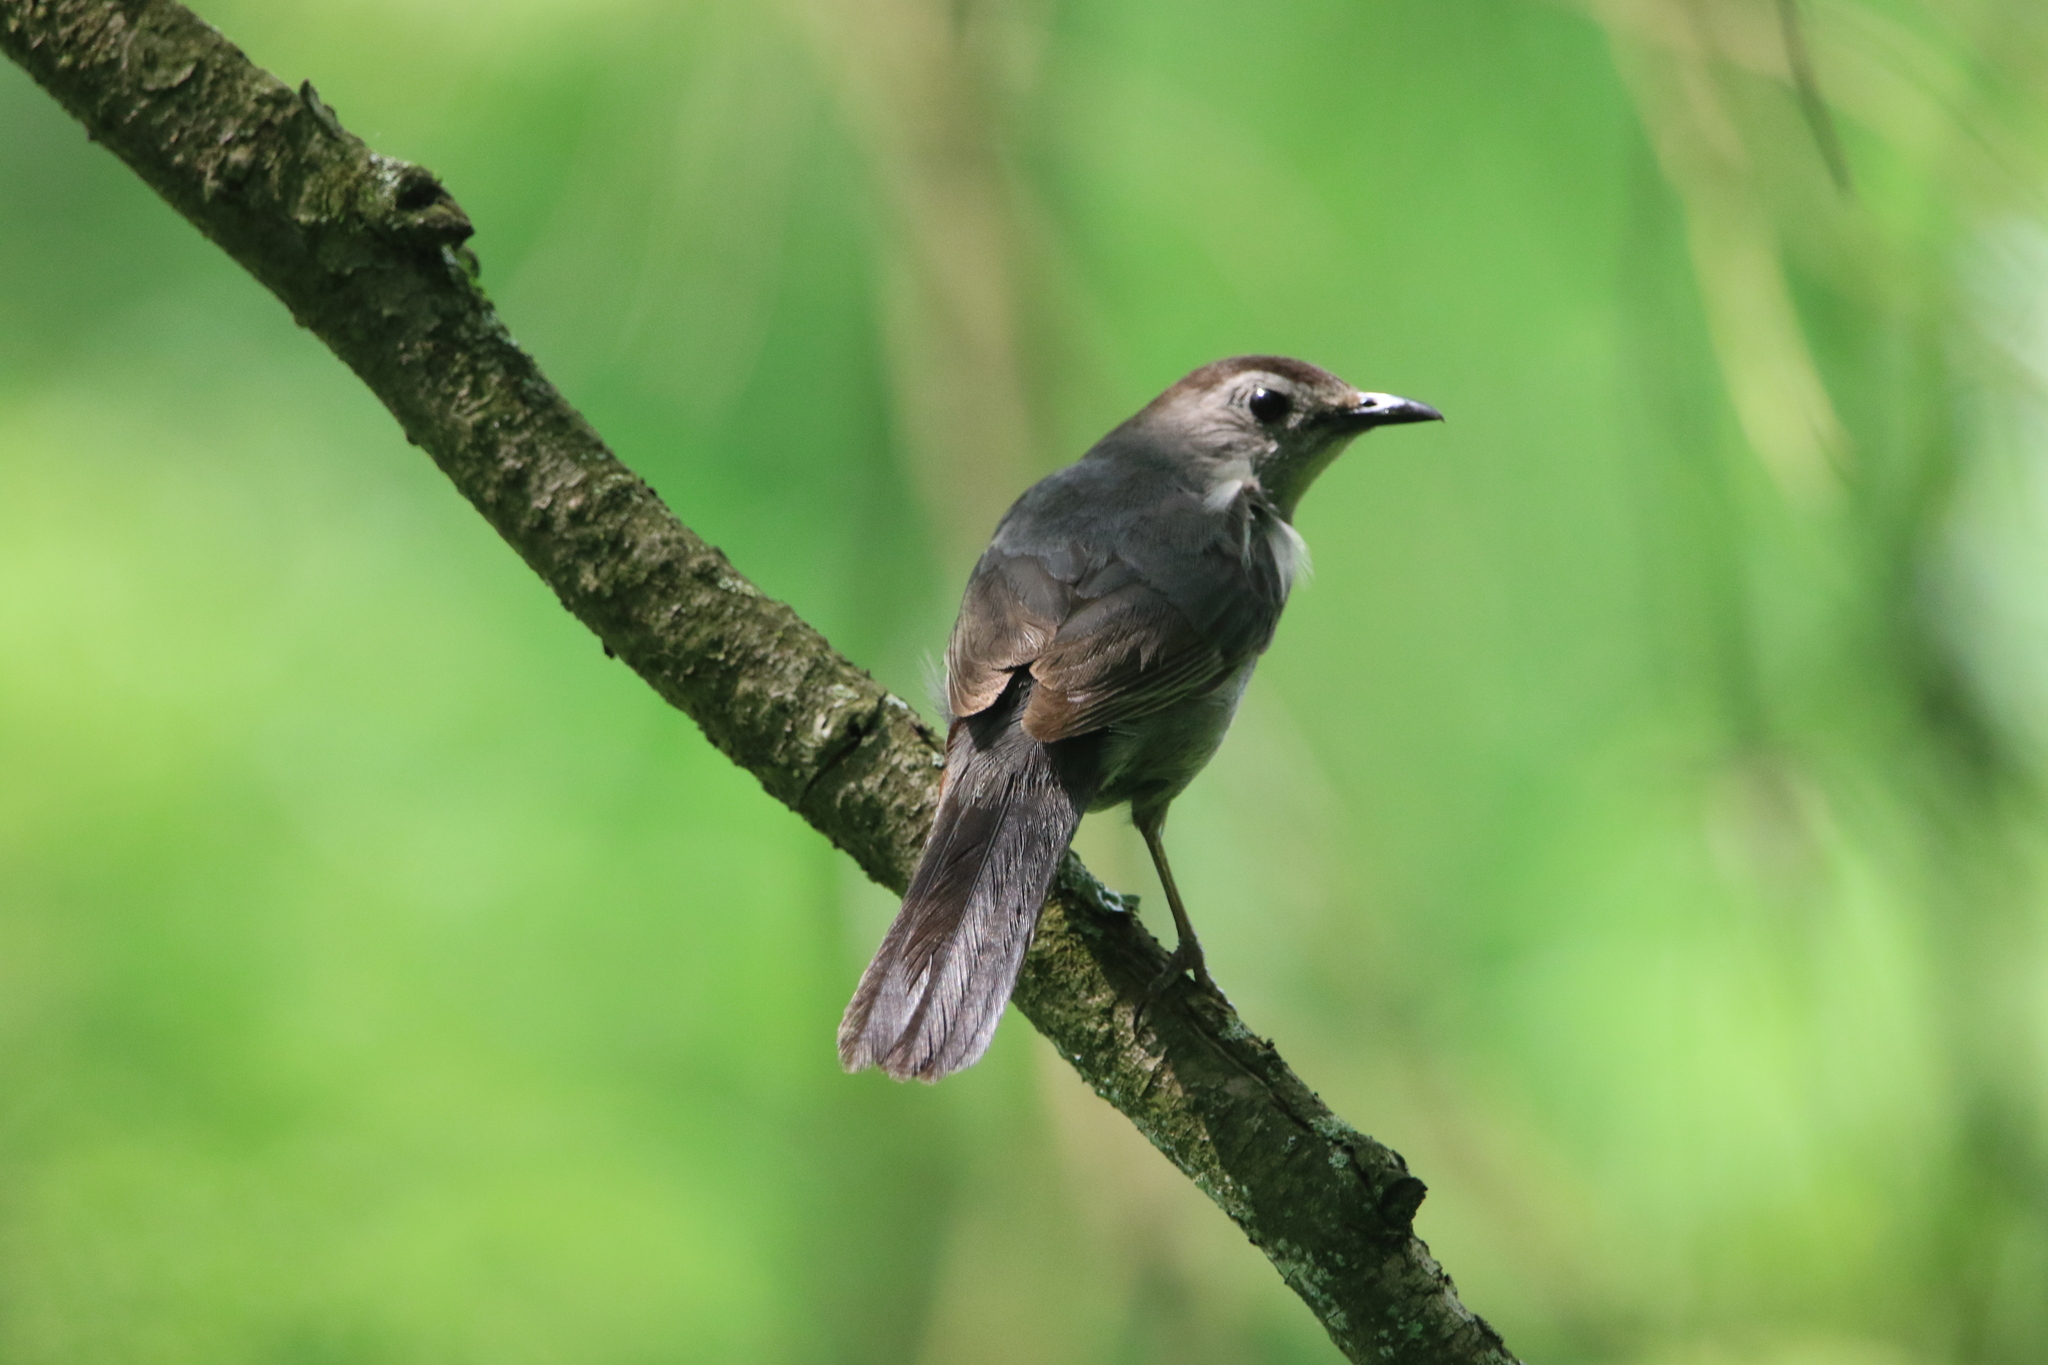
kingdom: Animalia
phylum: Chordata
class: Aves
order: Passeriformes
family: Mimidae
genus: Dumetella
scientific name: Dumetella carolinensis
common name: Gray catbird
